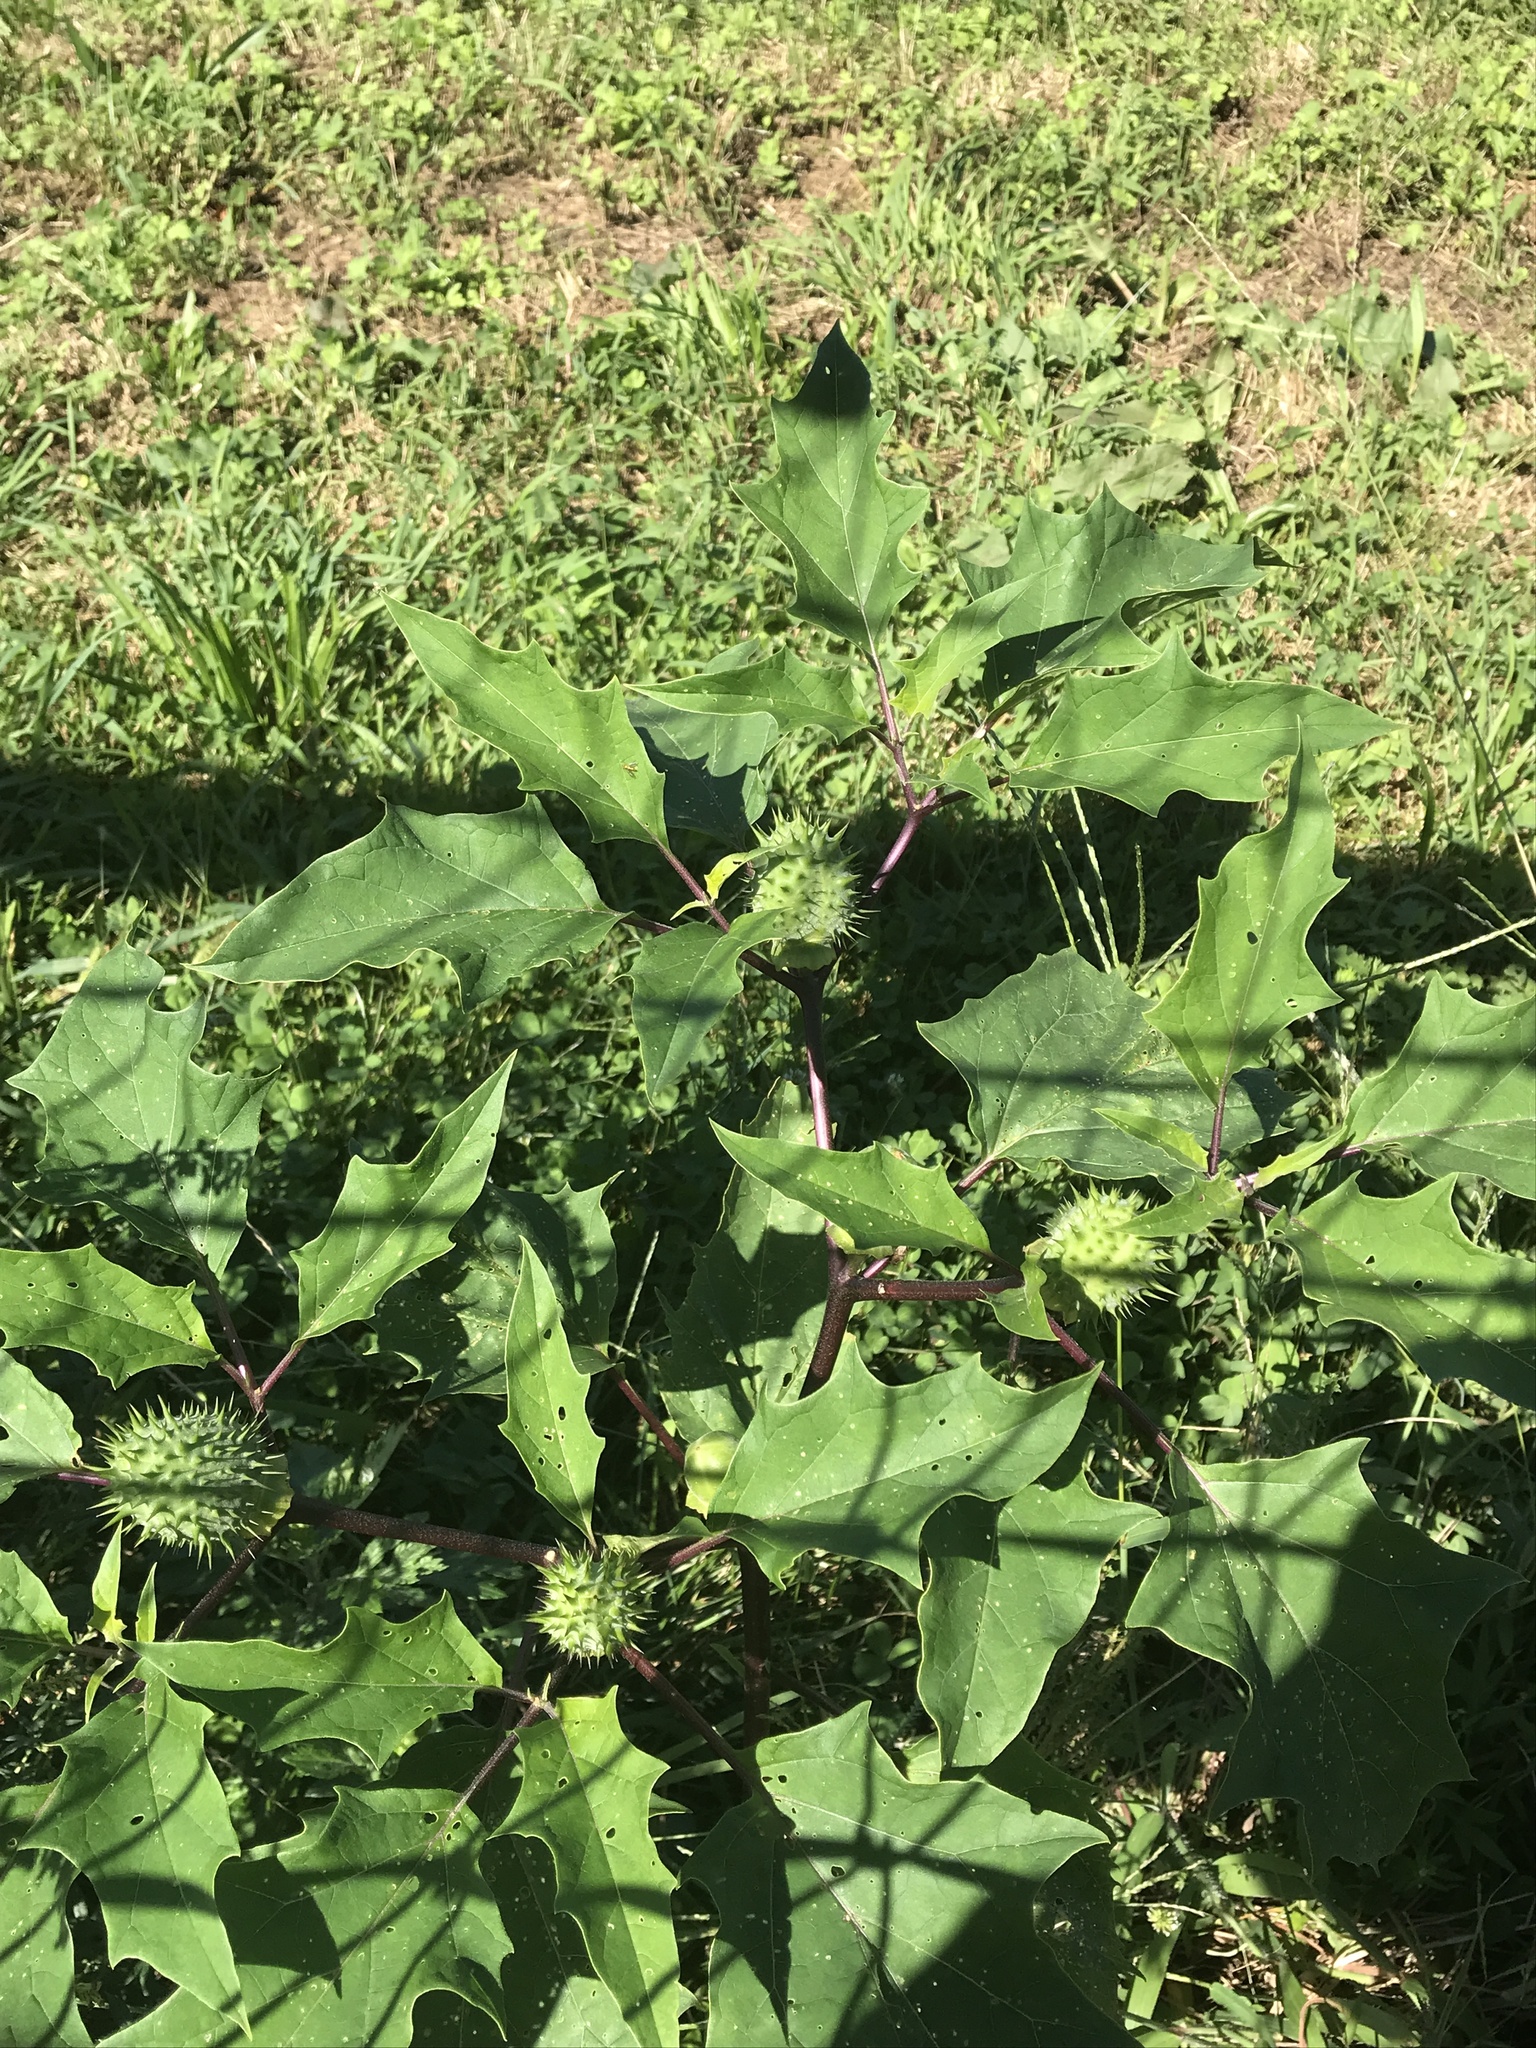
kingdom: Plantae
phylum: Tracheophyta
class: Magnoliopsida
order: Solanales
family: Solanaceae
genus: Datura
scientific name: Datura stramonium
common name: Thorn-apple
